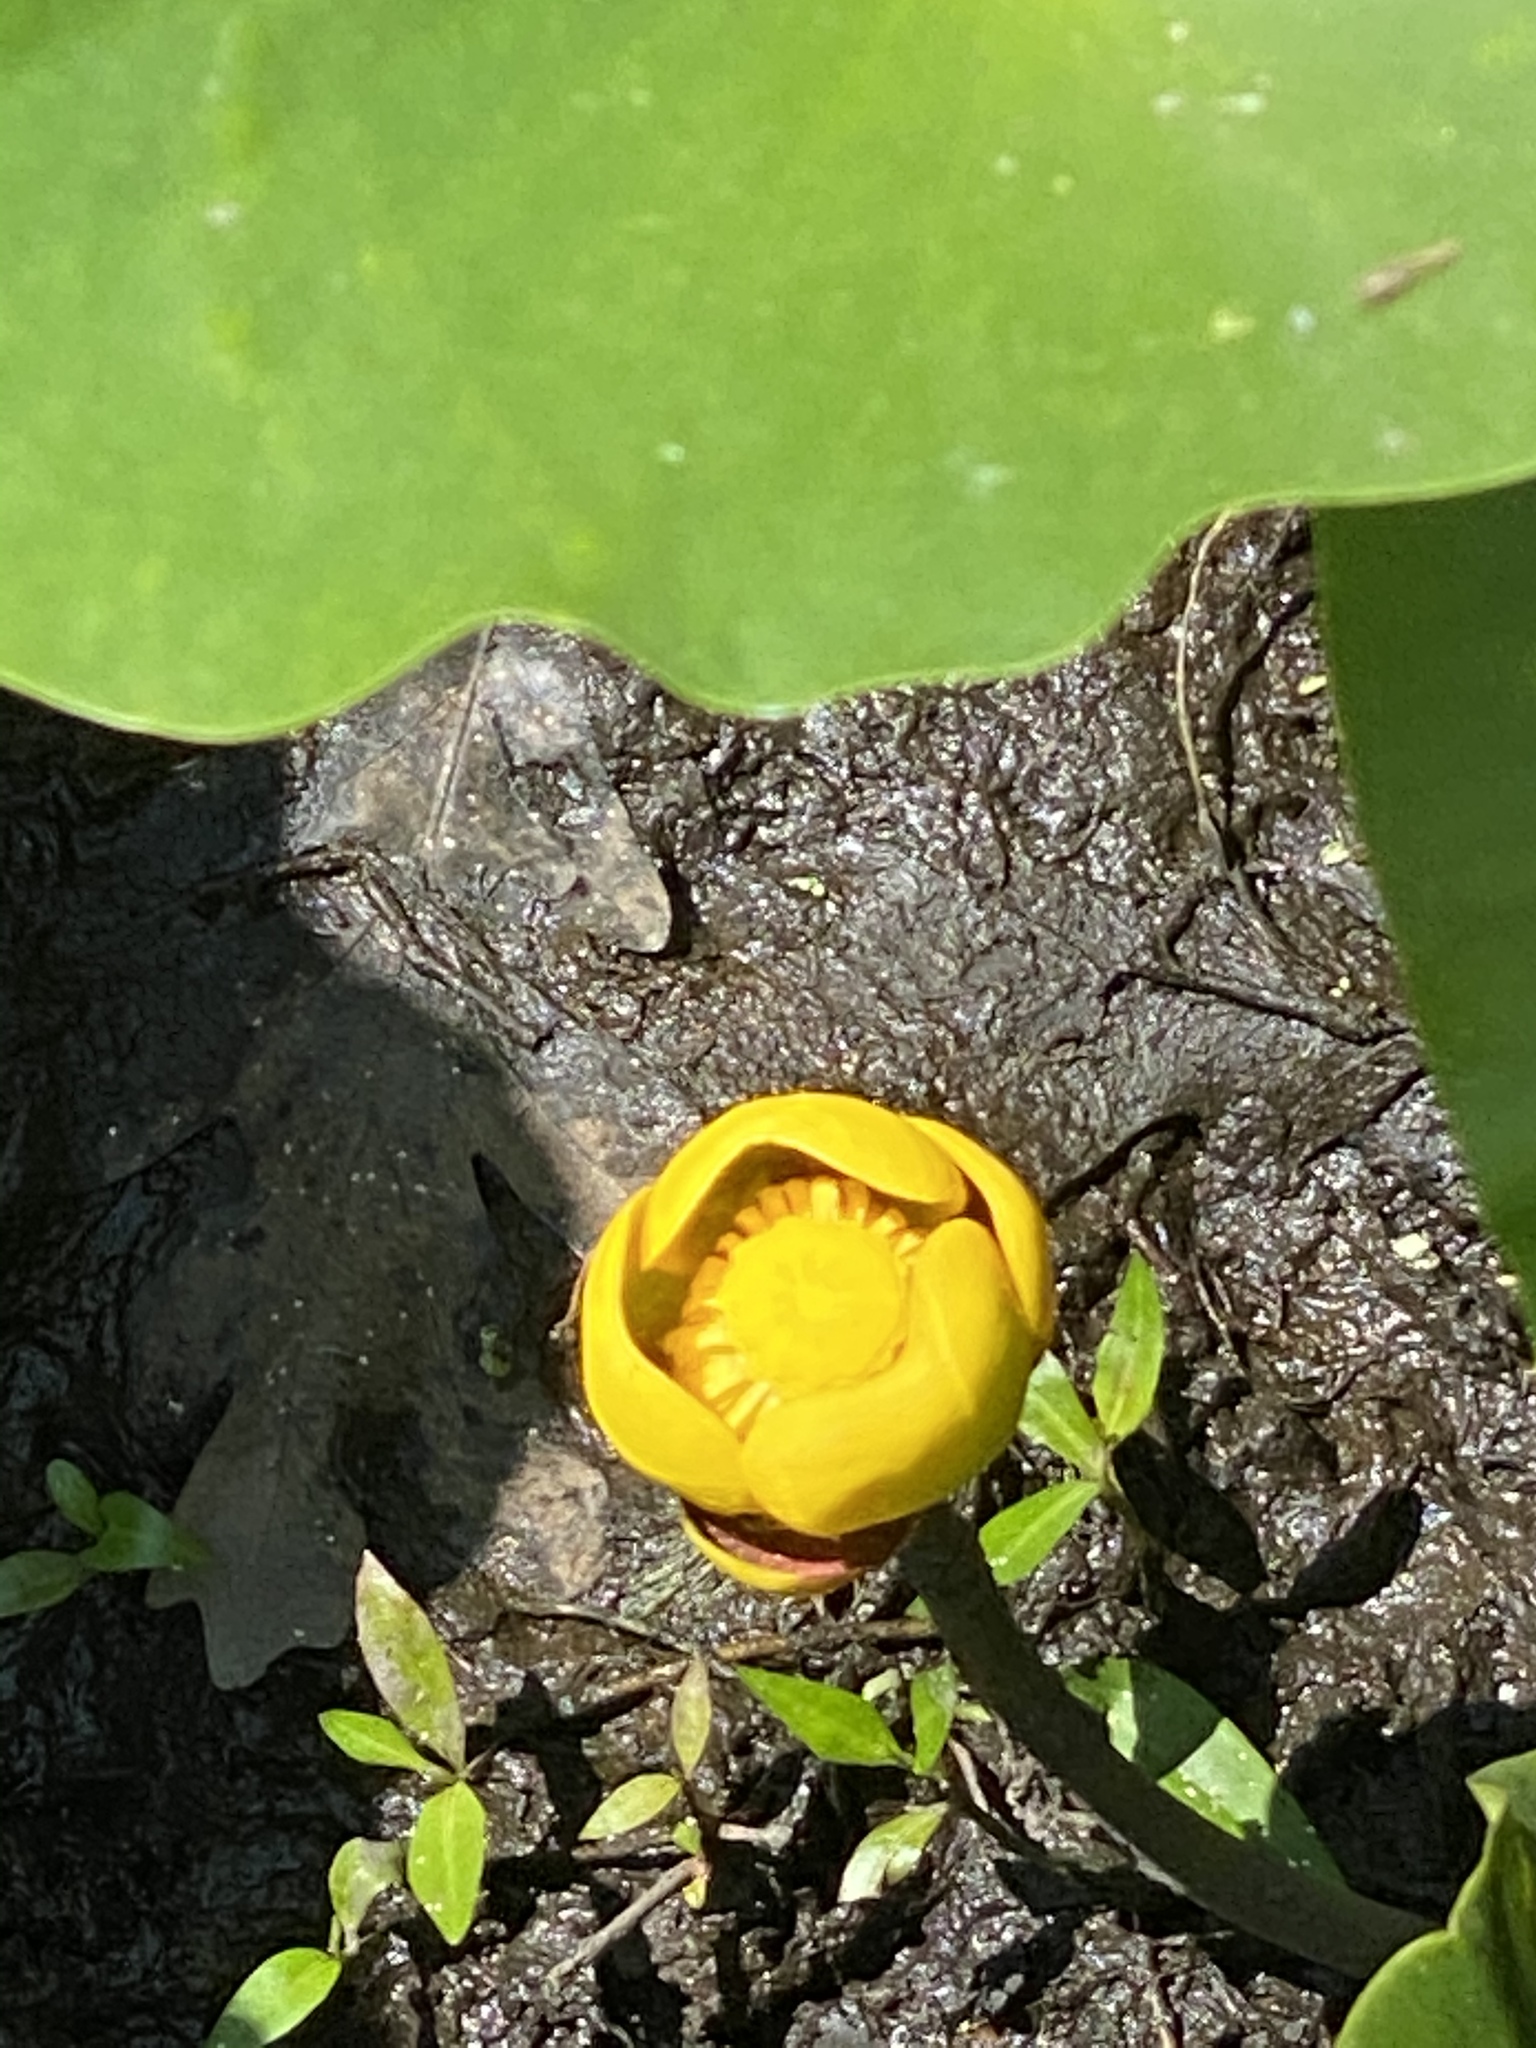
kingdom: Plantae
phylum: Tracheophyta
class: Magnoliopsida
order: Nymphaeales
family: Nymphaeaceae
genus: Nuphar
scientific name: Nuphar advena
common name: Spatter-dock
